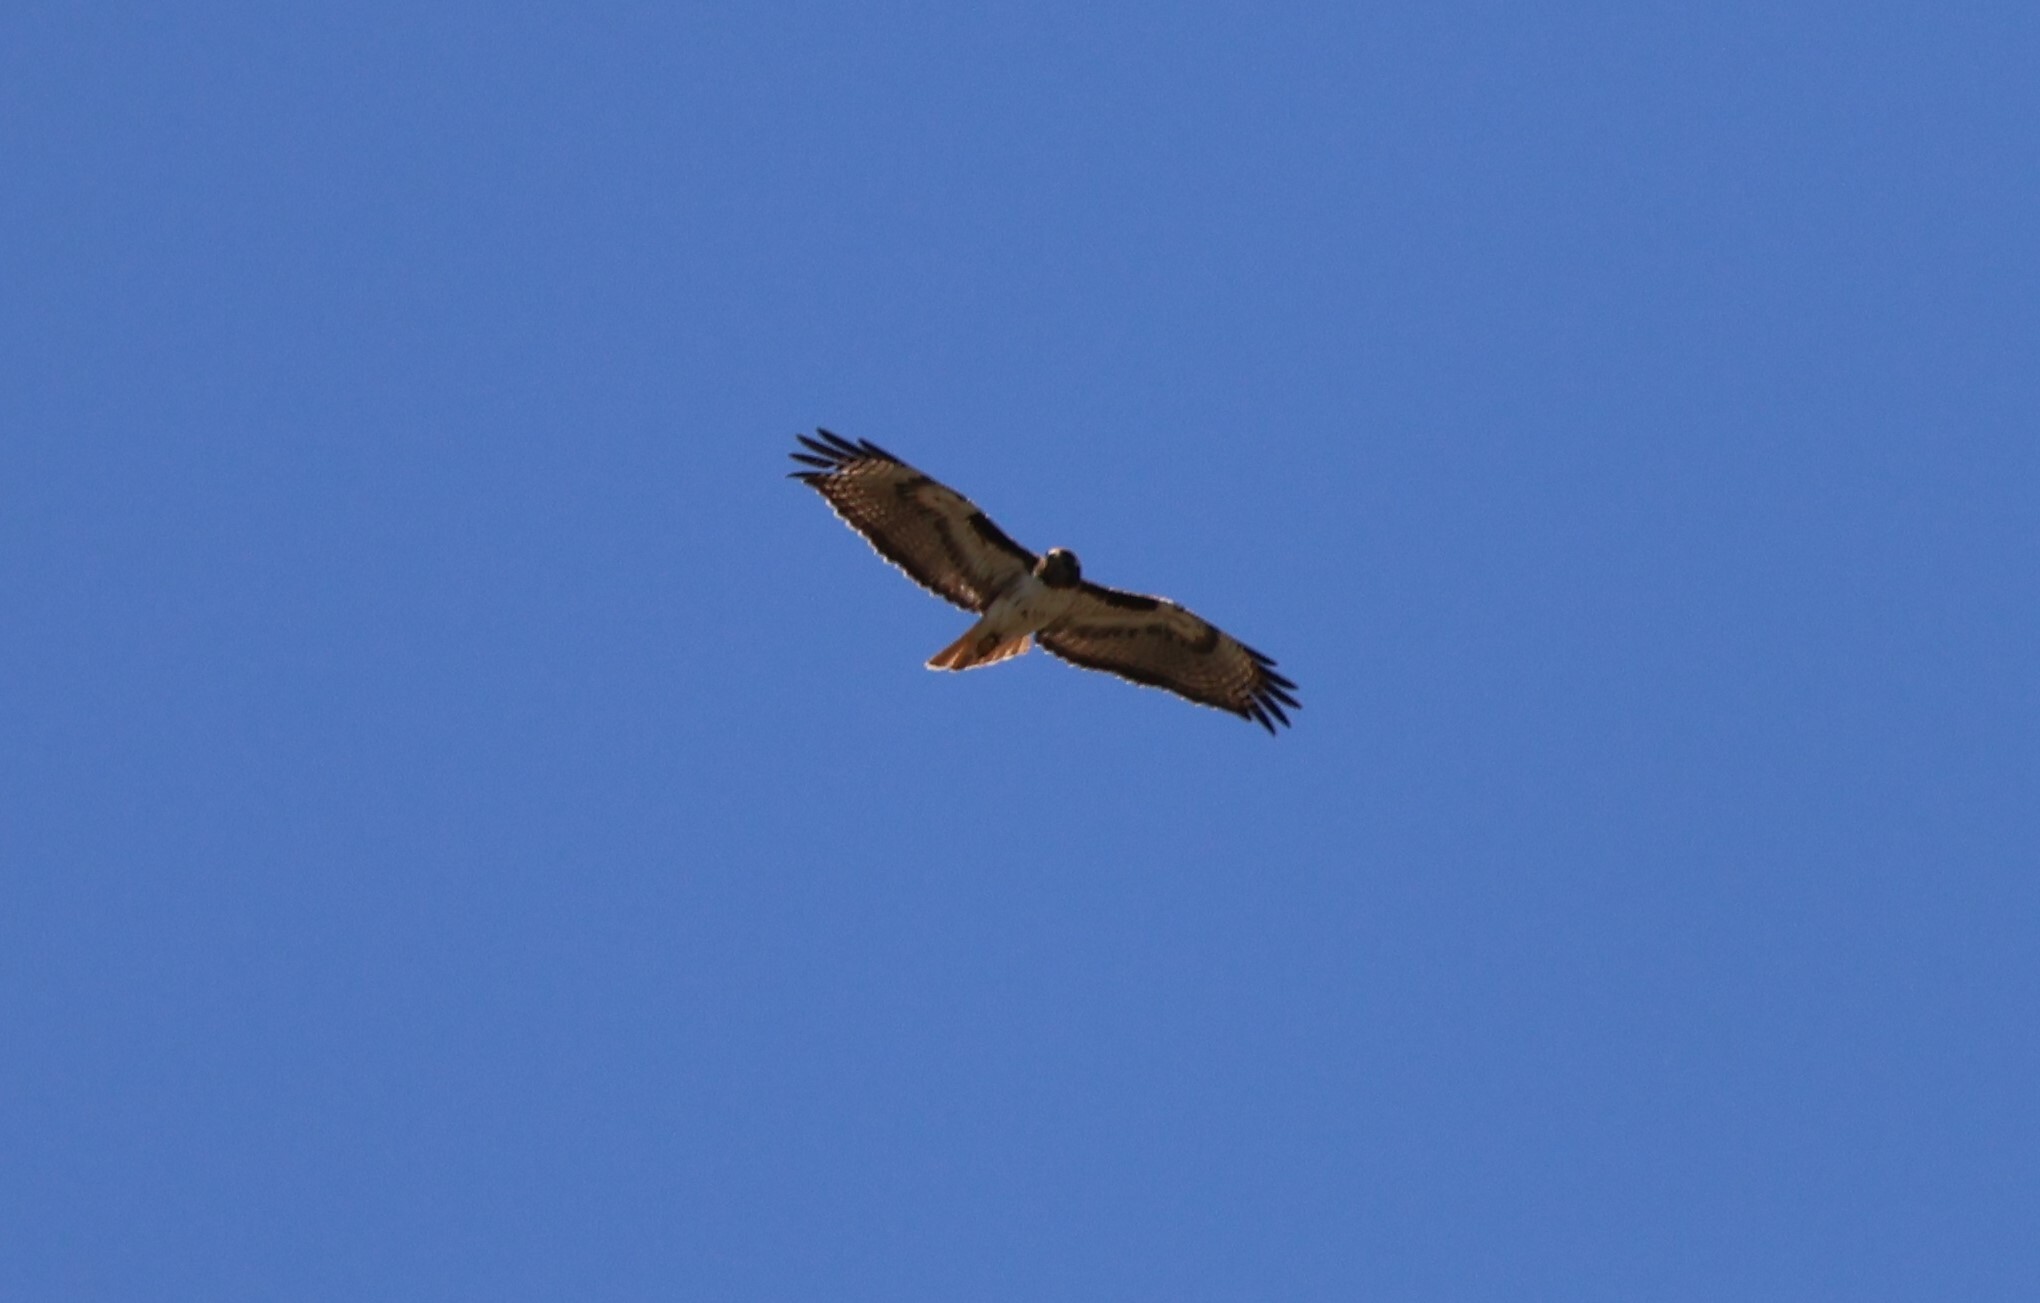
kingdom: Animalia
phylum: Chordata
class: Aves
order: Accipitriformes
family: Accipitridae
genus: Buteo
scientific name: Buteo jamaicensis
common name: Red-tailed hawk
